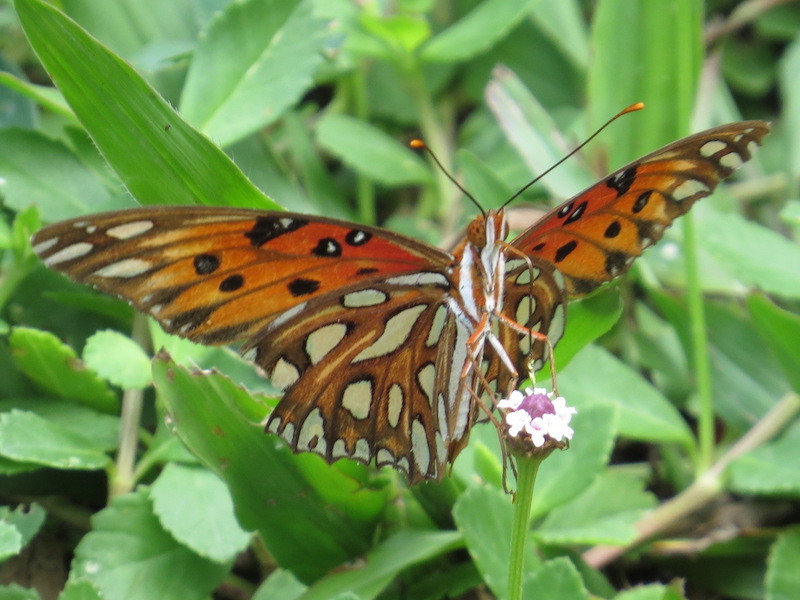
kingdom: Animalia
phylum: Arthropoda
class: Insecta
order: Lepidoptera
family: Nymphalidae
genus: Dione
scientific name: Dione vanillae
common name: Gulf fritillary
